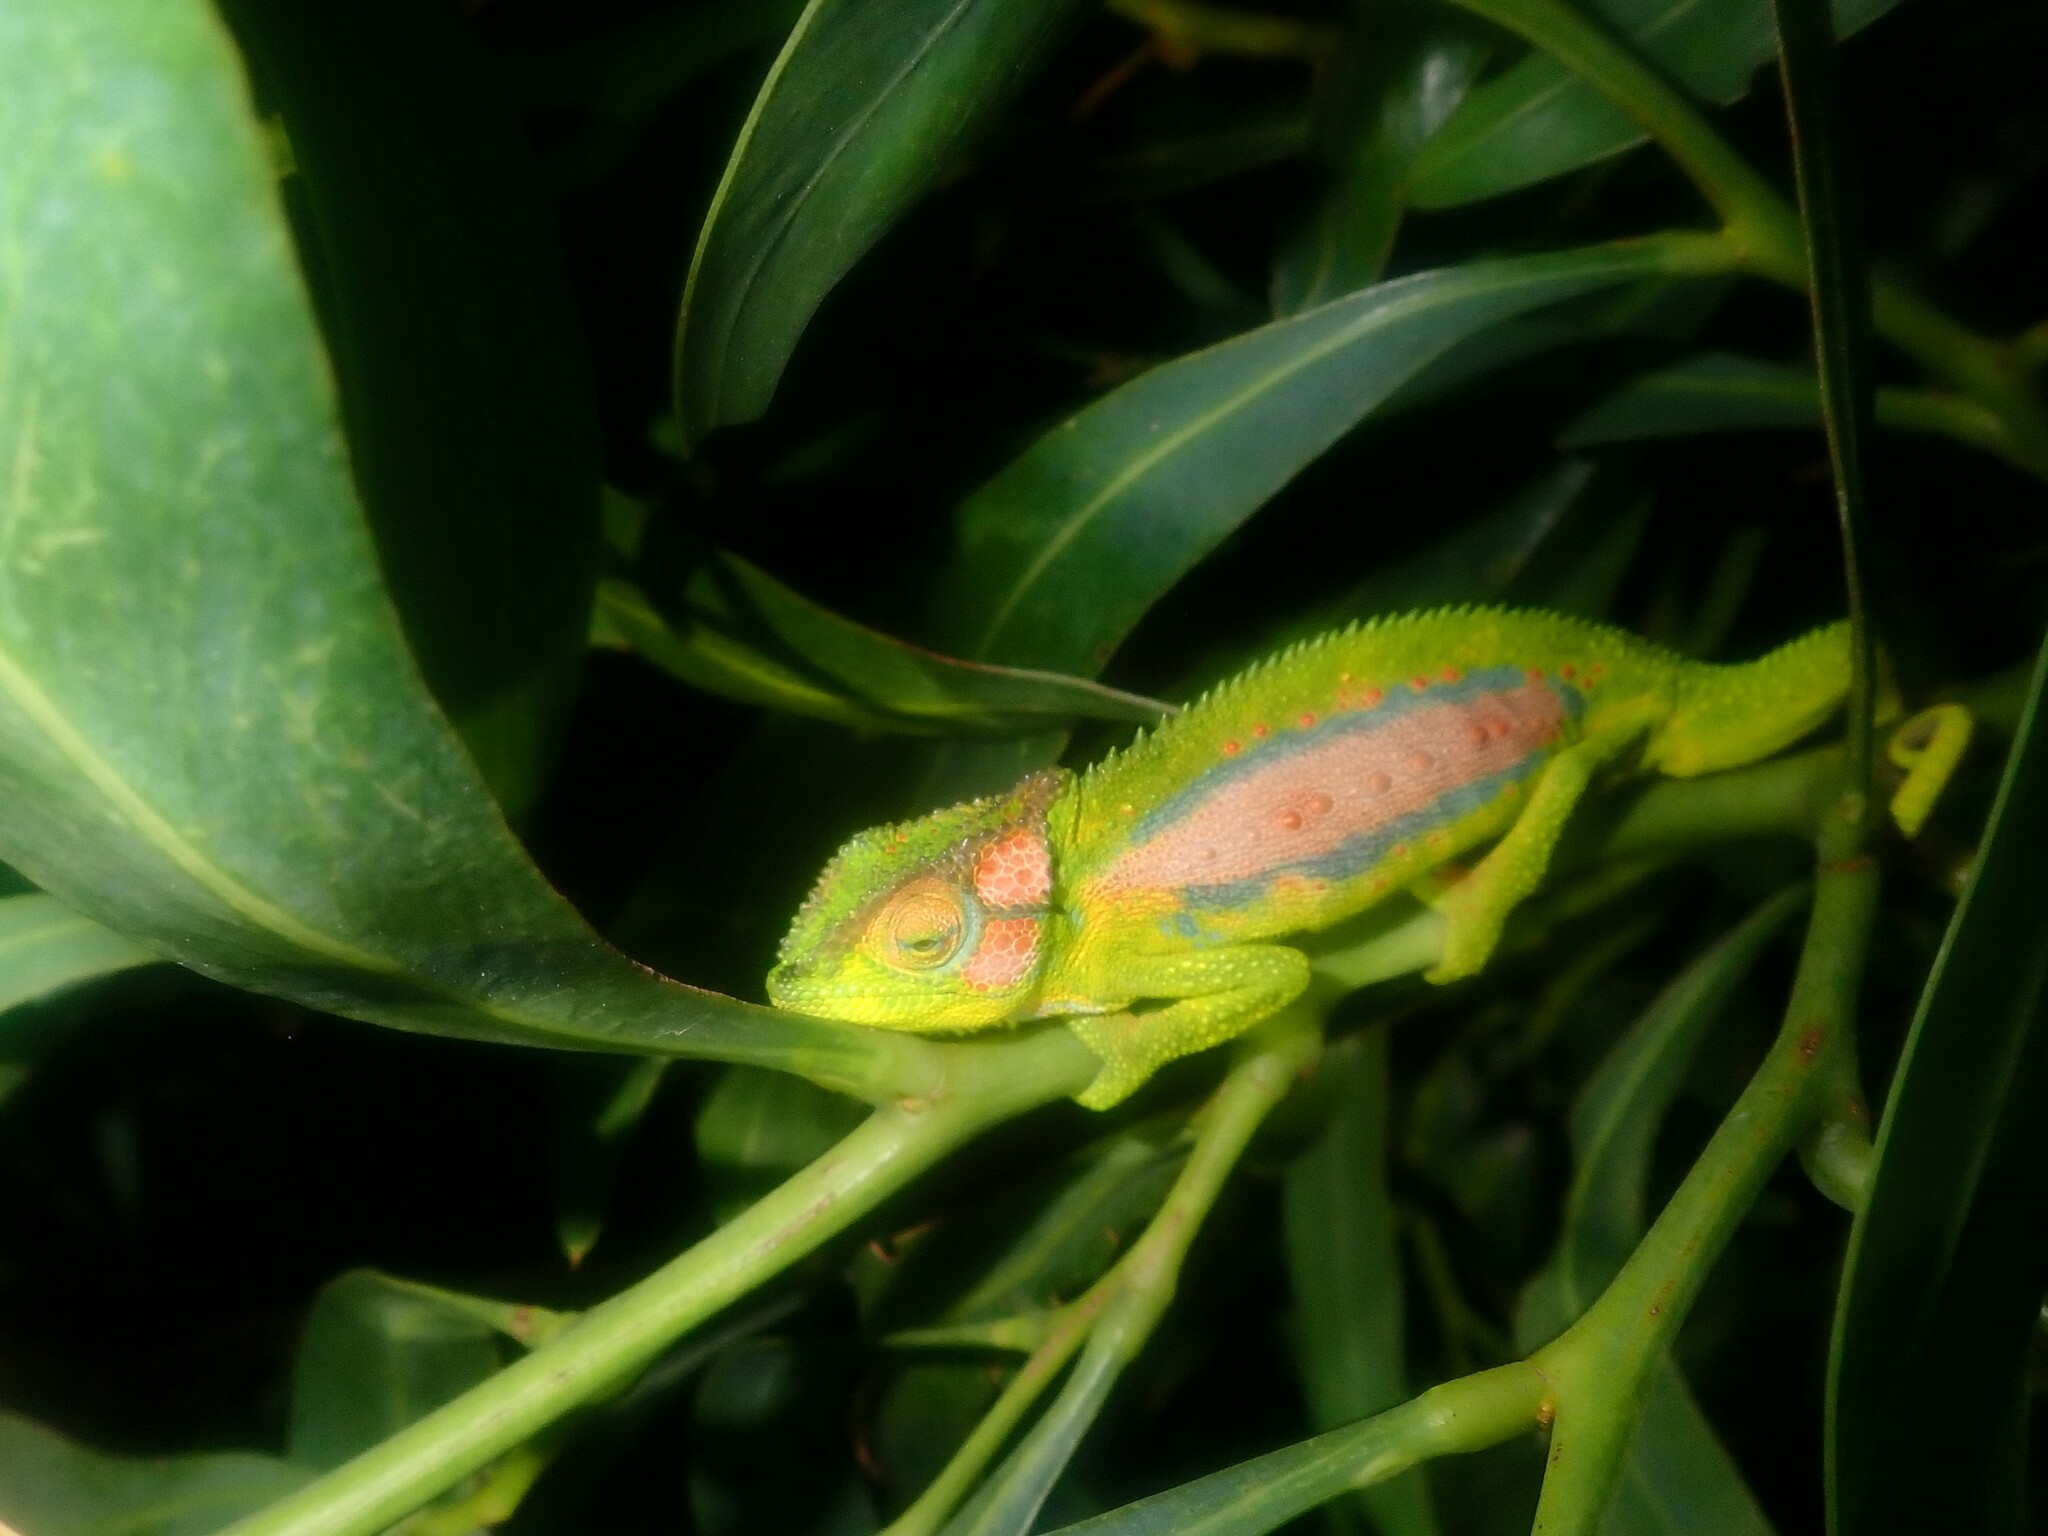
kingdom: Animalia
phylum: Chordata
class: Squamata
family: Chamaeleonidae
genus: Bradypodion
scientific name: Bradypodion pumilum
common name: Cape dwarf chameleon
